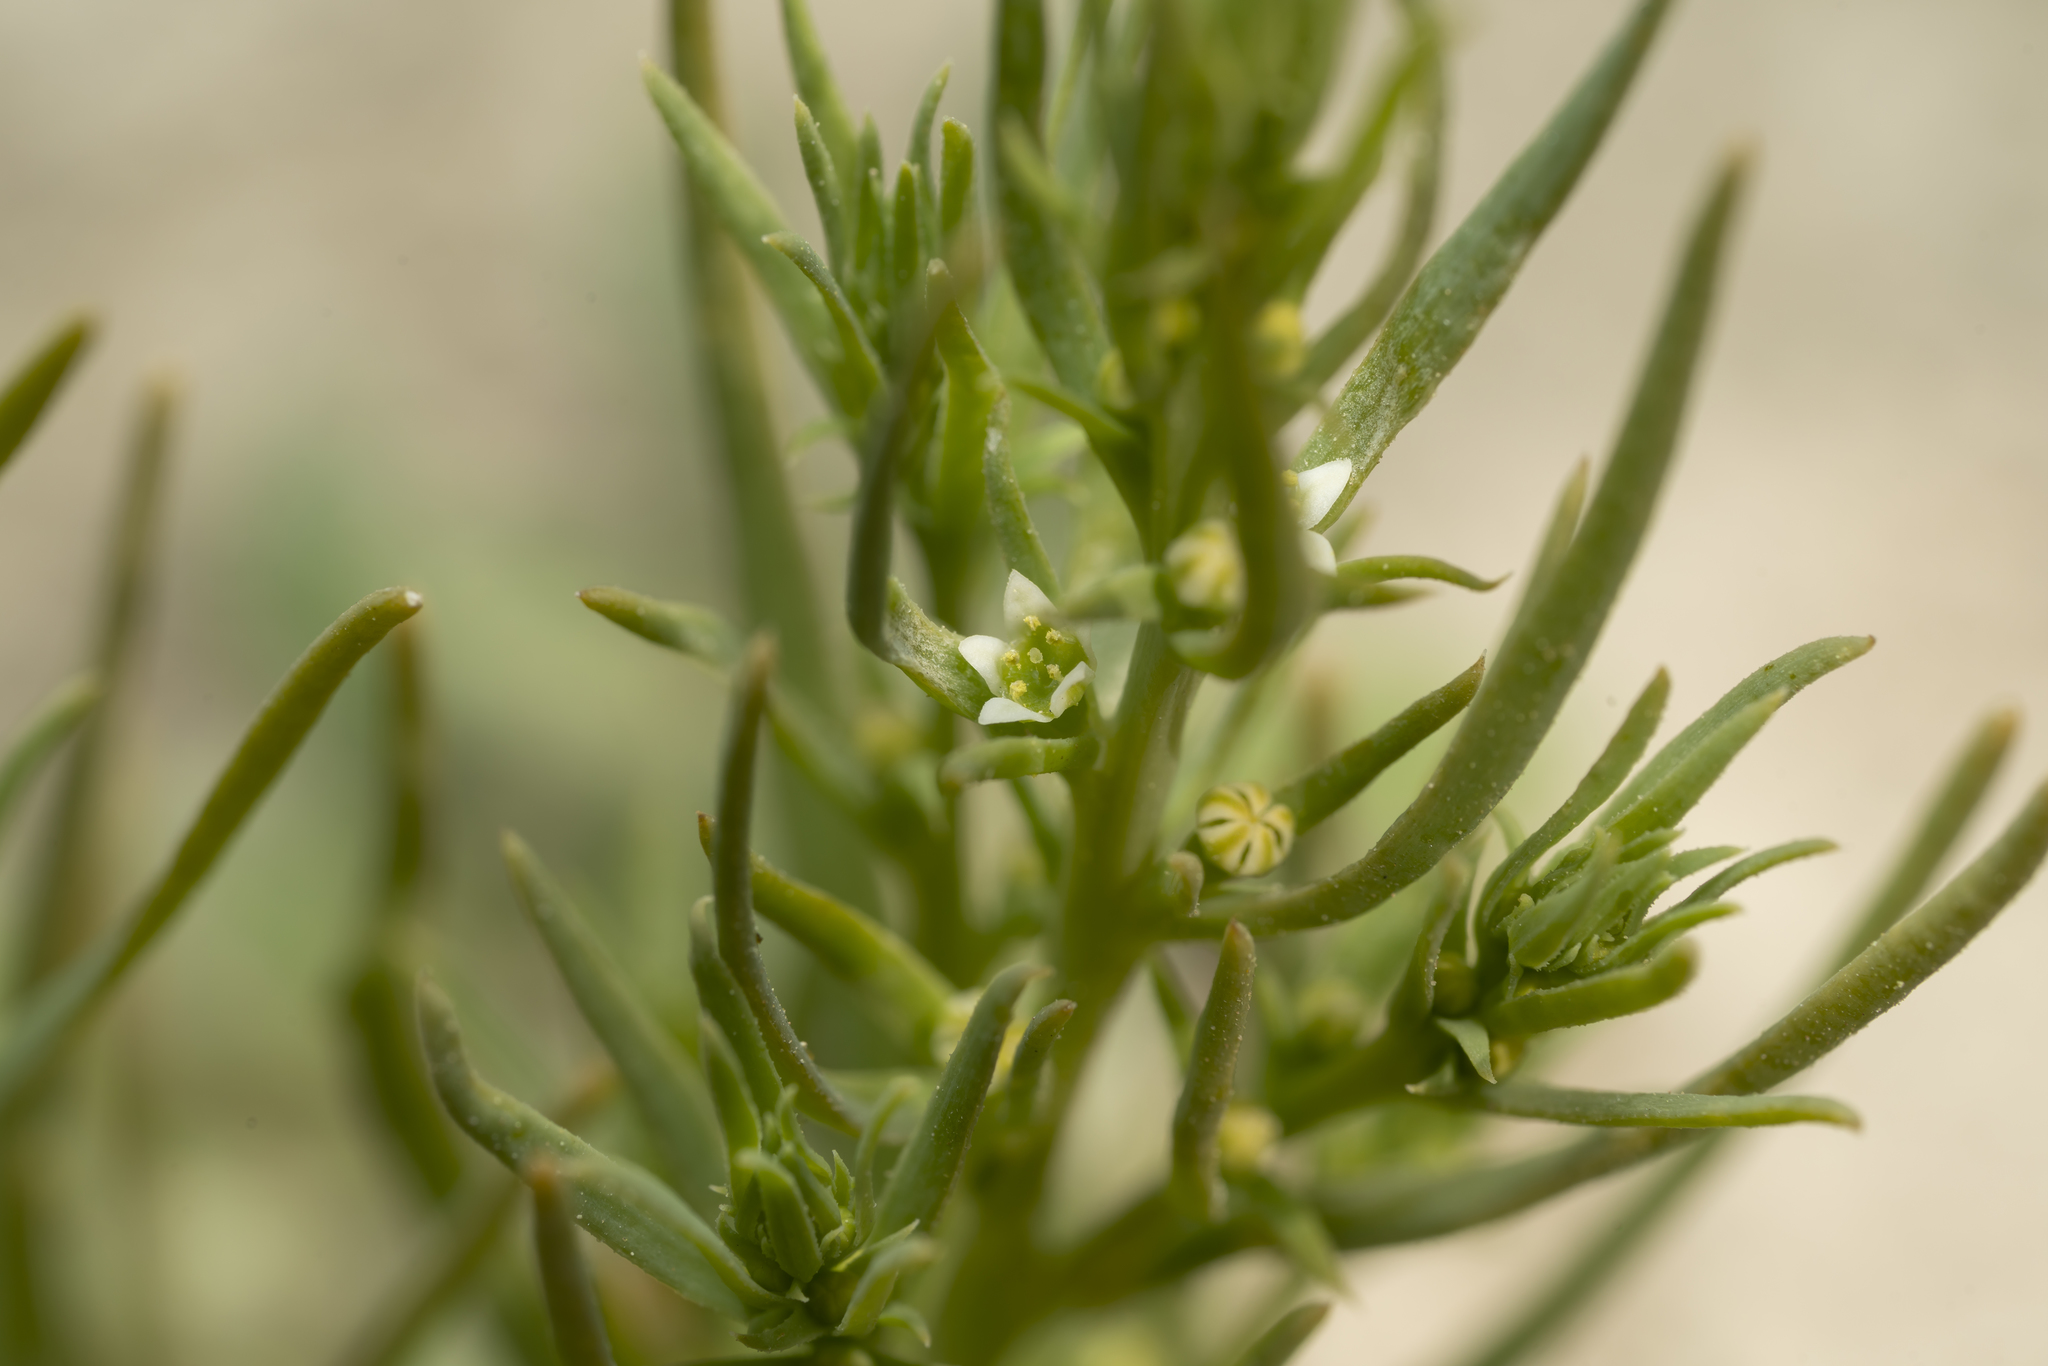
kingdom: Plantae
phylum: Tracheophyta
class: Magnoliopsida
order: Santalales
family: Thesiaceae
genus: Thesium
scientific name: Thesium humile
